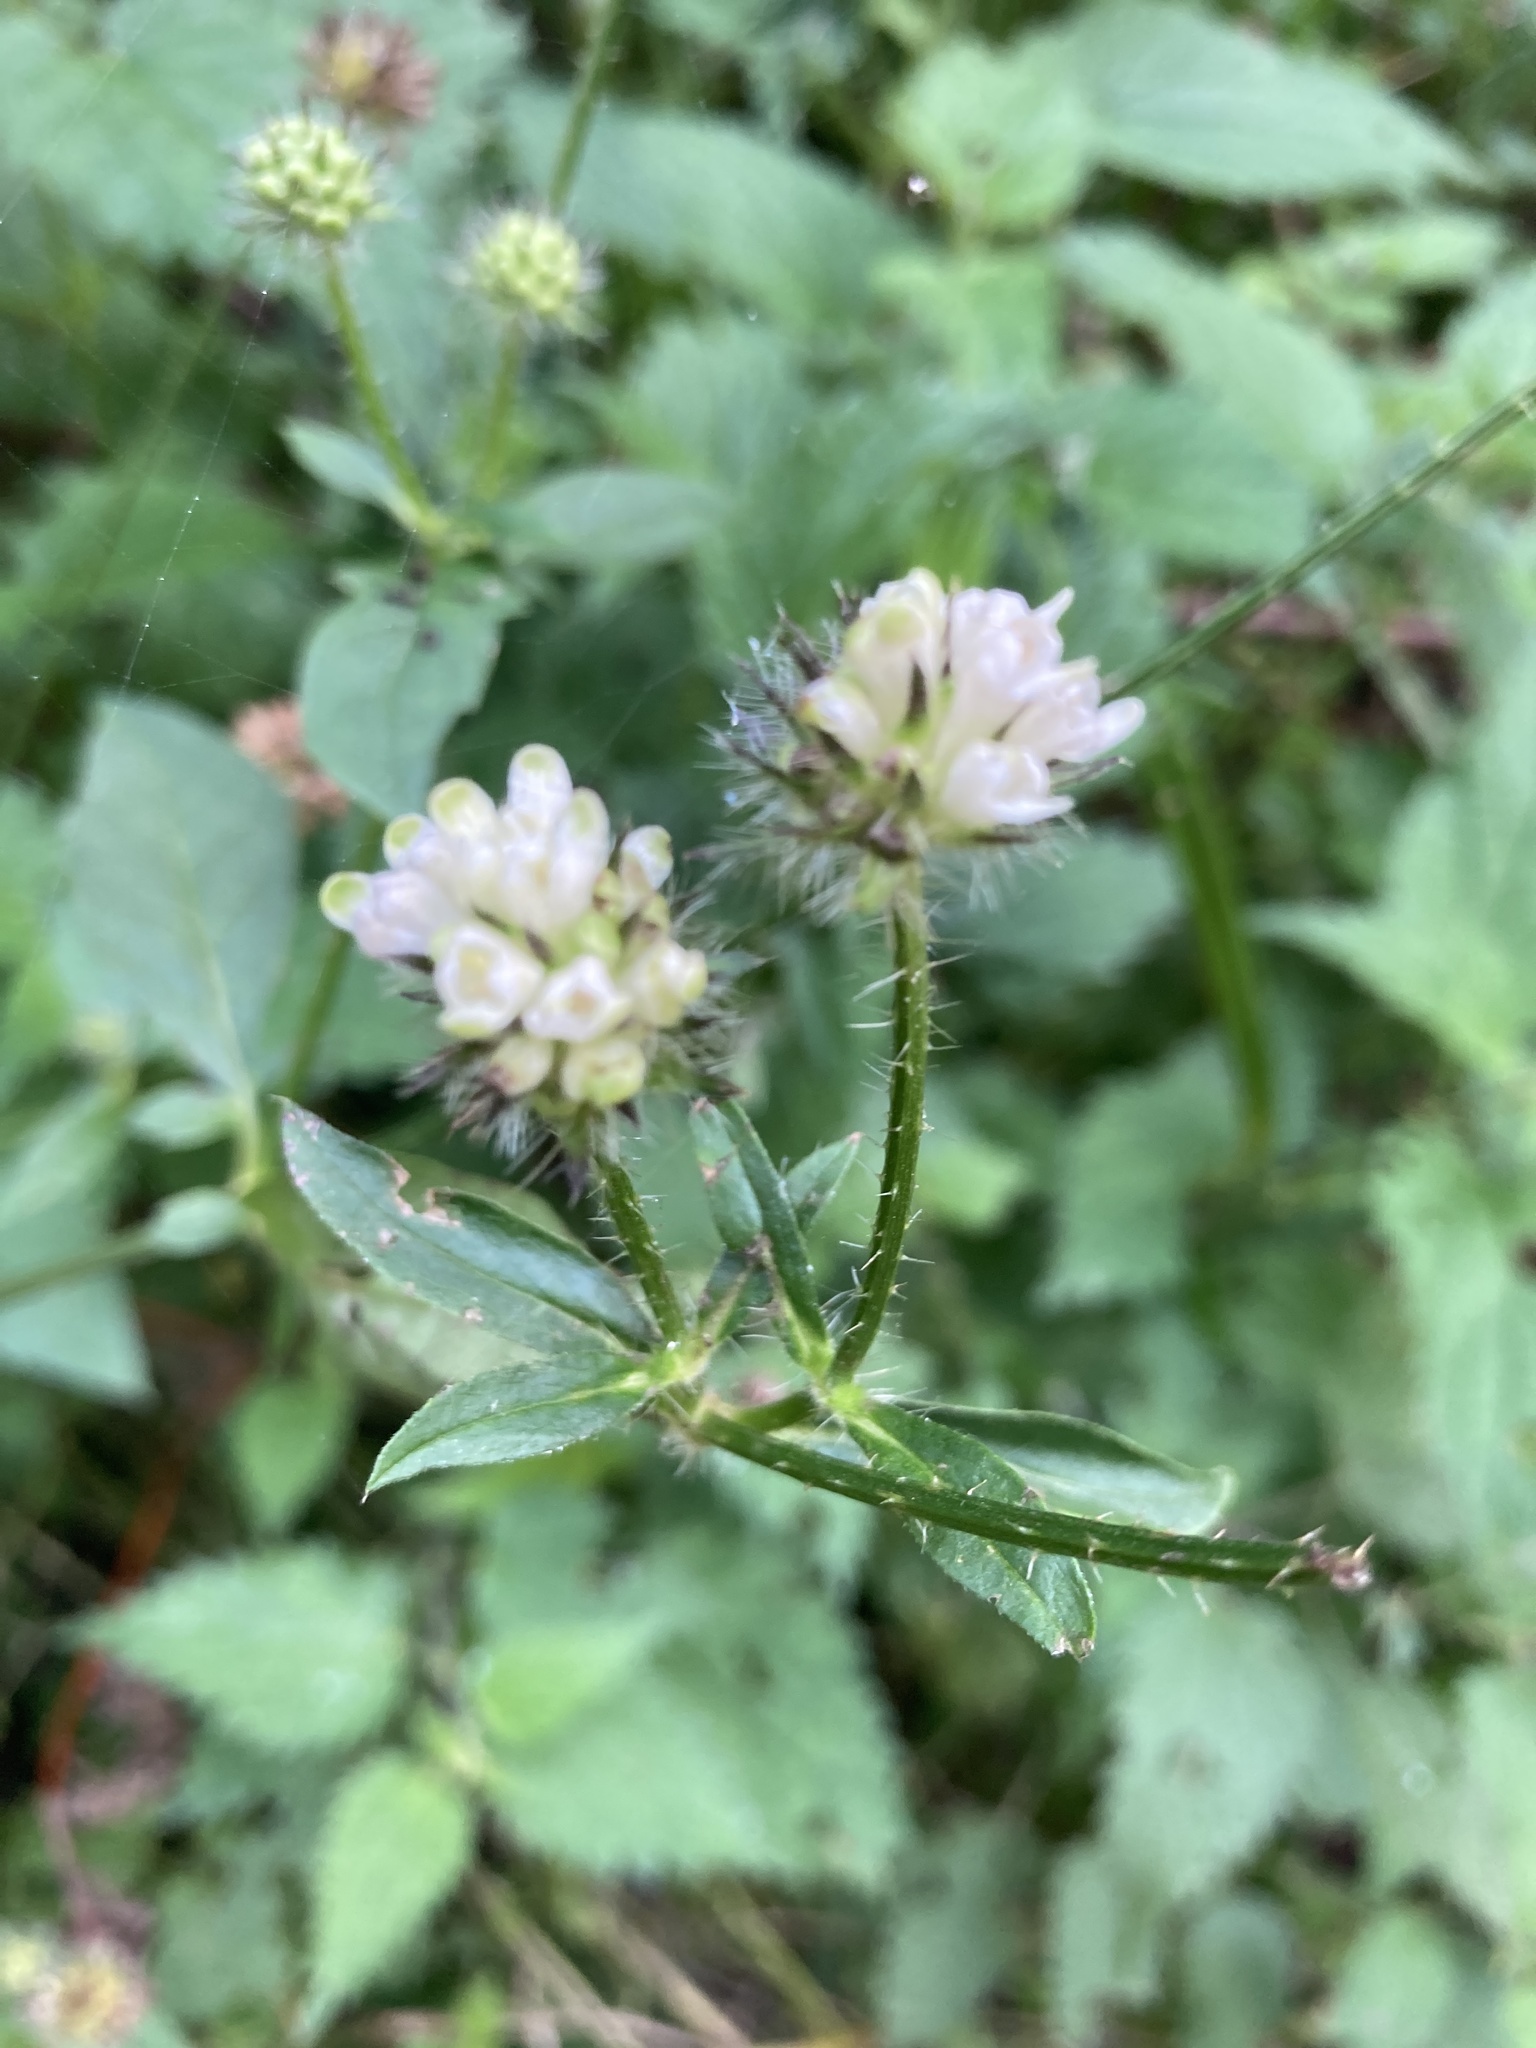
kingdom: Plantae
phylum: Tracheophyta
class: Magnoliopsida
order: Dipsacales
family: Caprifoliaceae
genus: Dipsacus
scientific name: Dipsacus pilosus
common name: Small teasel
